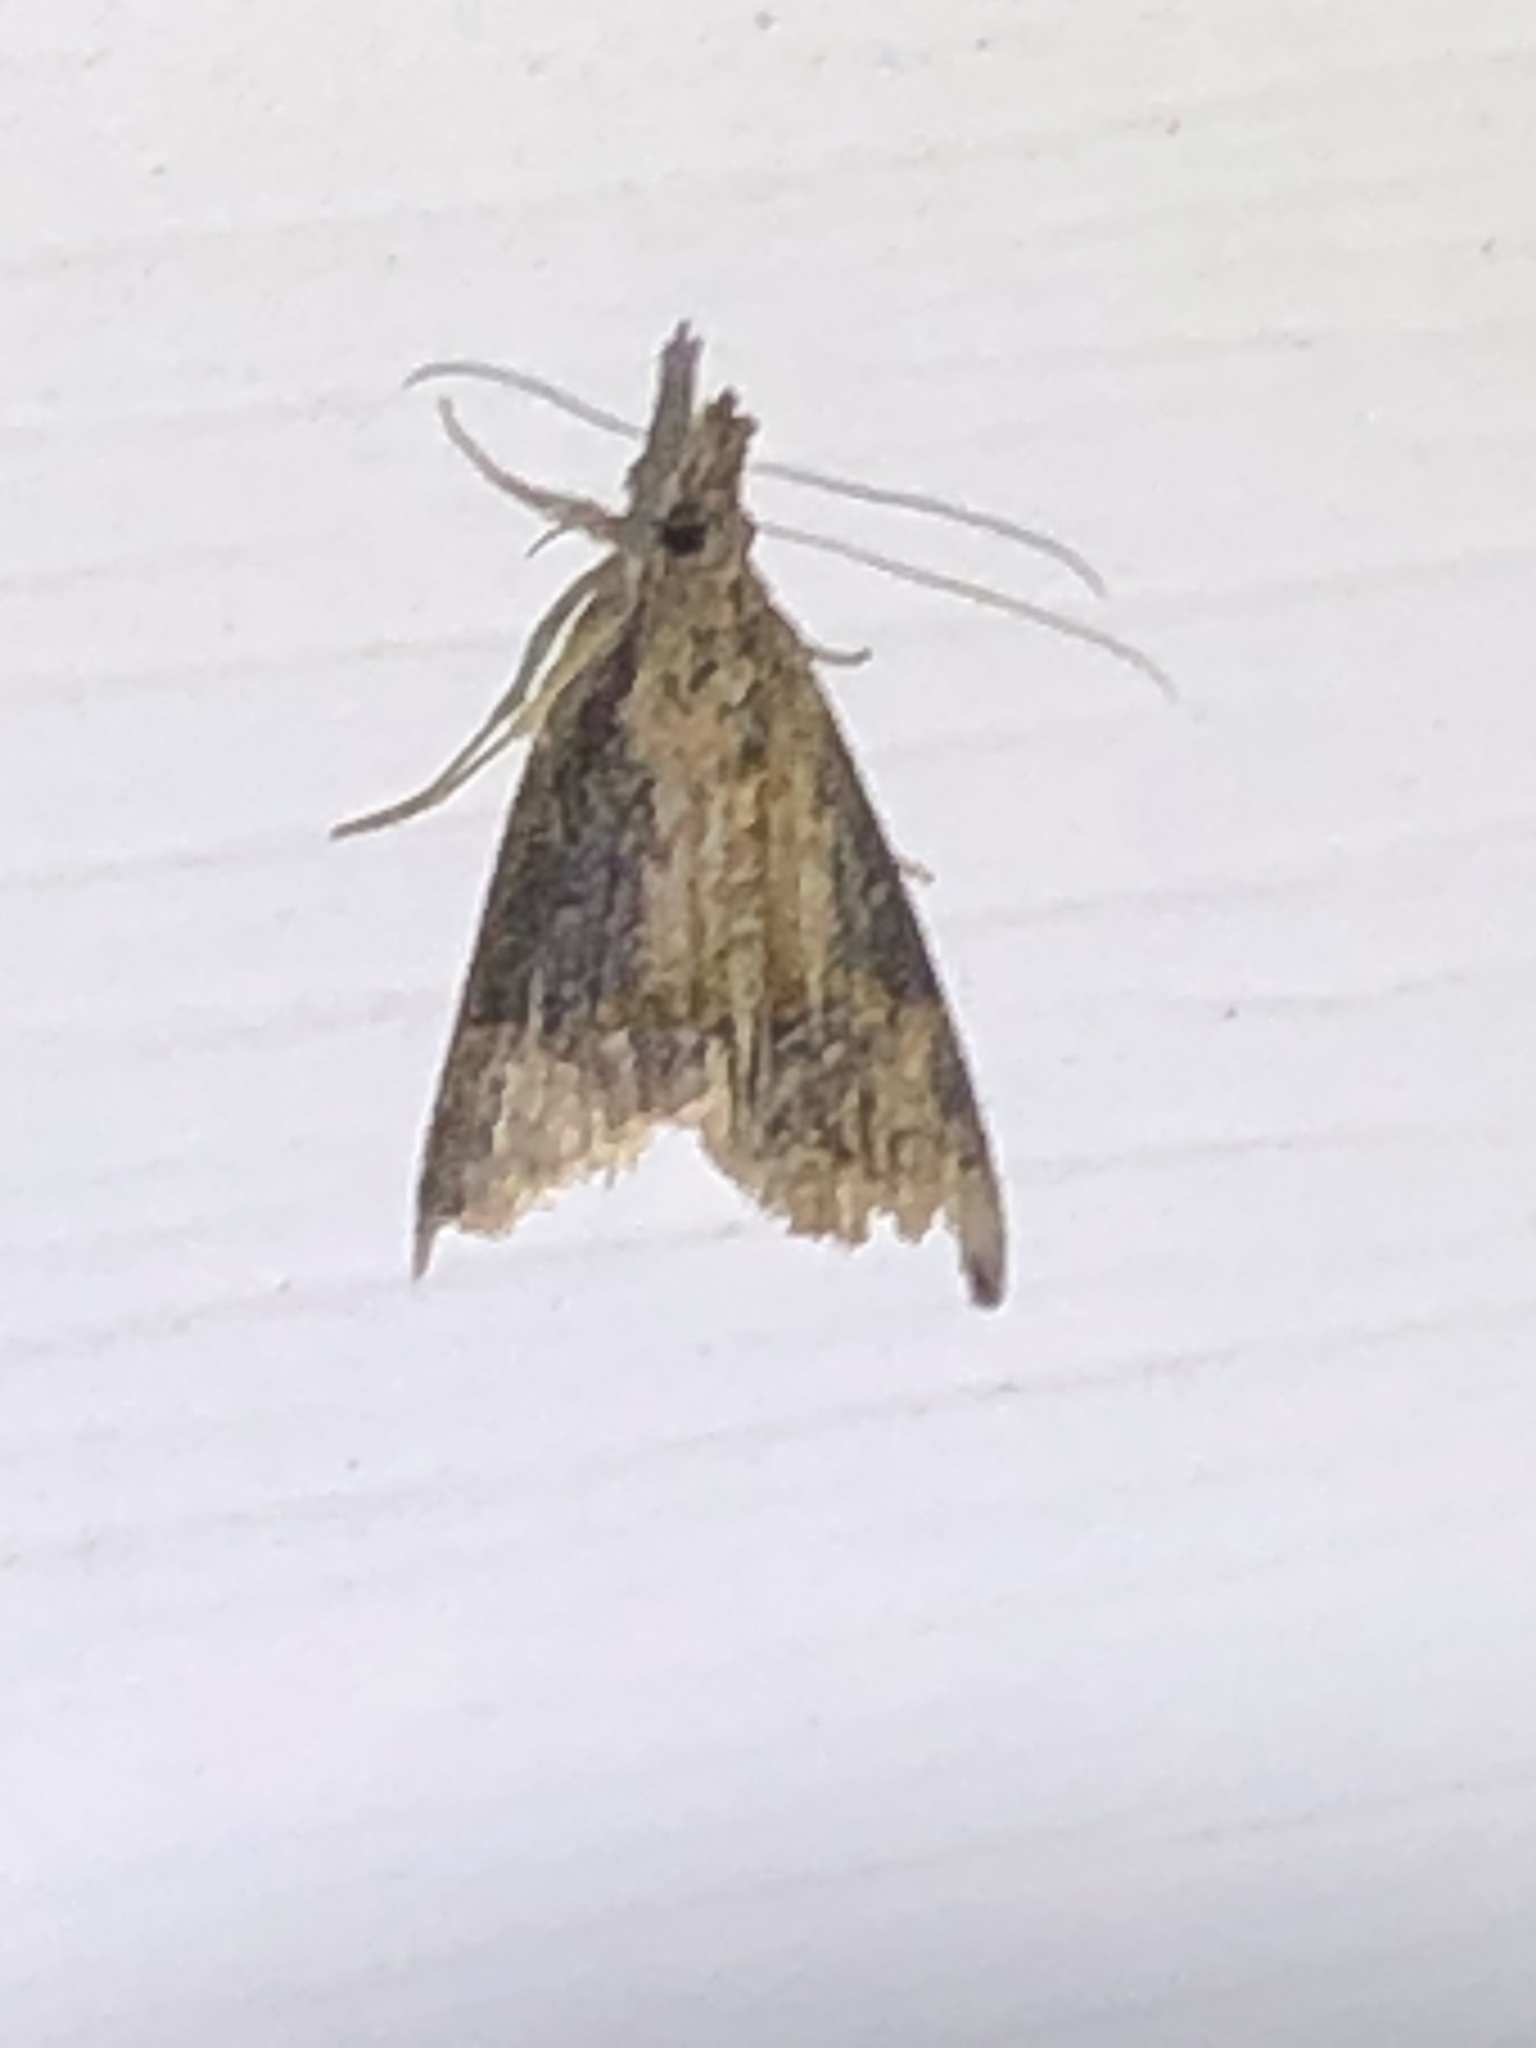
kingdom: Animalia
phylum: Arthropoda
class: Insecta
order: Lepidoptera
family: Erebidae
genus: Hypena
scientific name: Hypena scabra
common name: Green cloverworm
